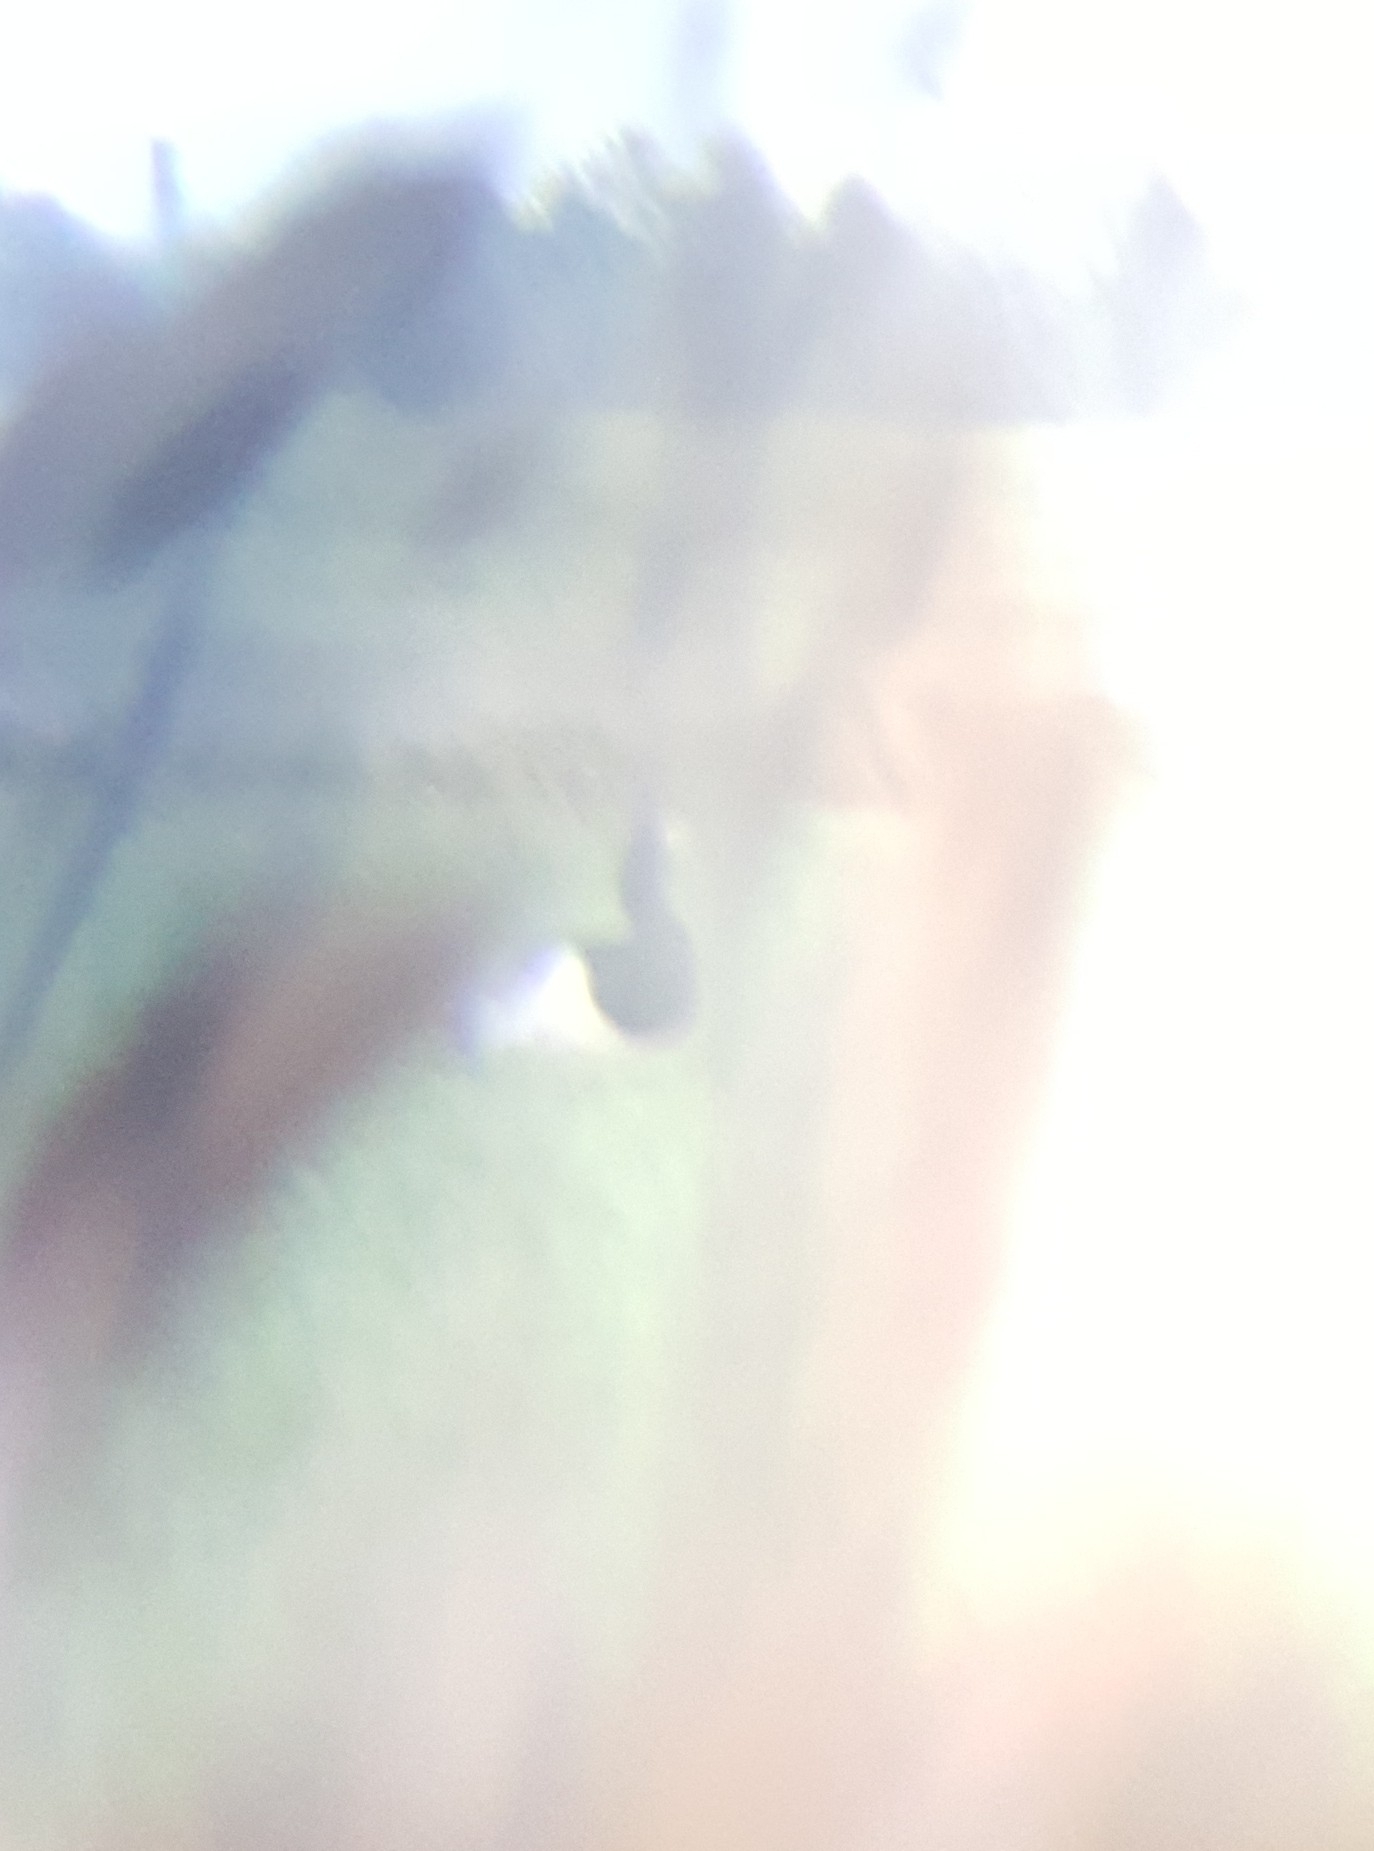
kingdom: Animalia
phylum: Chordata
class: Aves
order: Anseriformes
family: Anatidae
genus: Branta
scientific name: Branta leucopsis
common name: Barnacle goose
